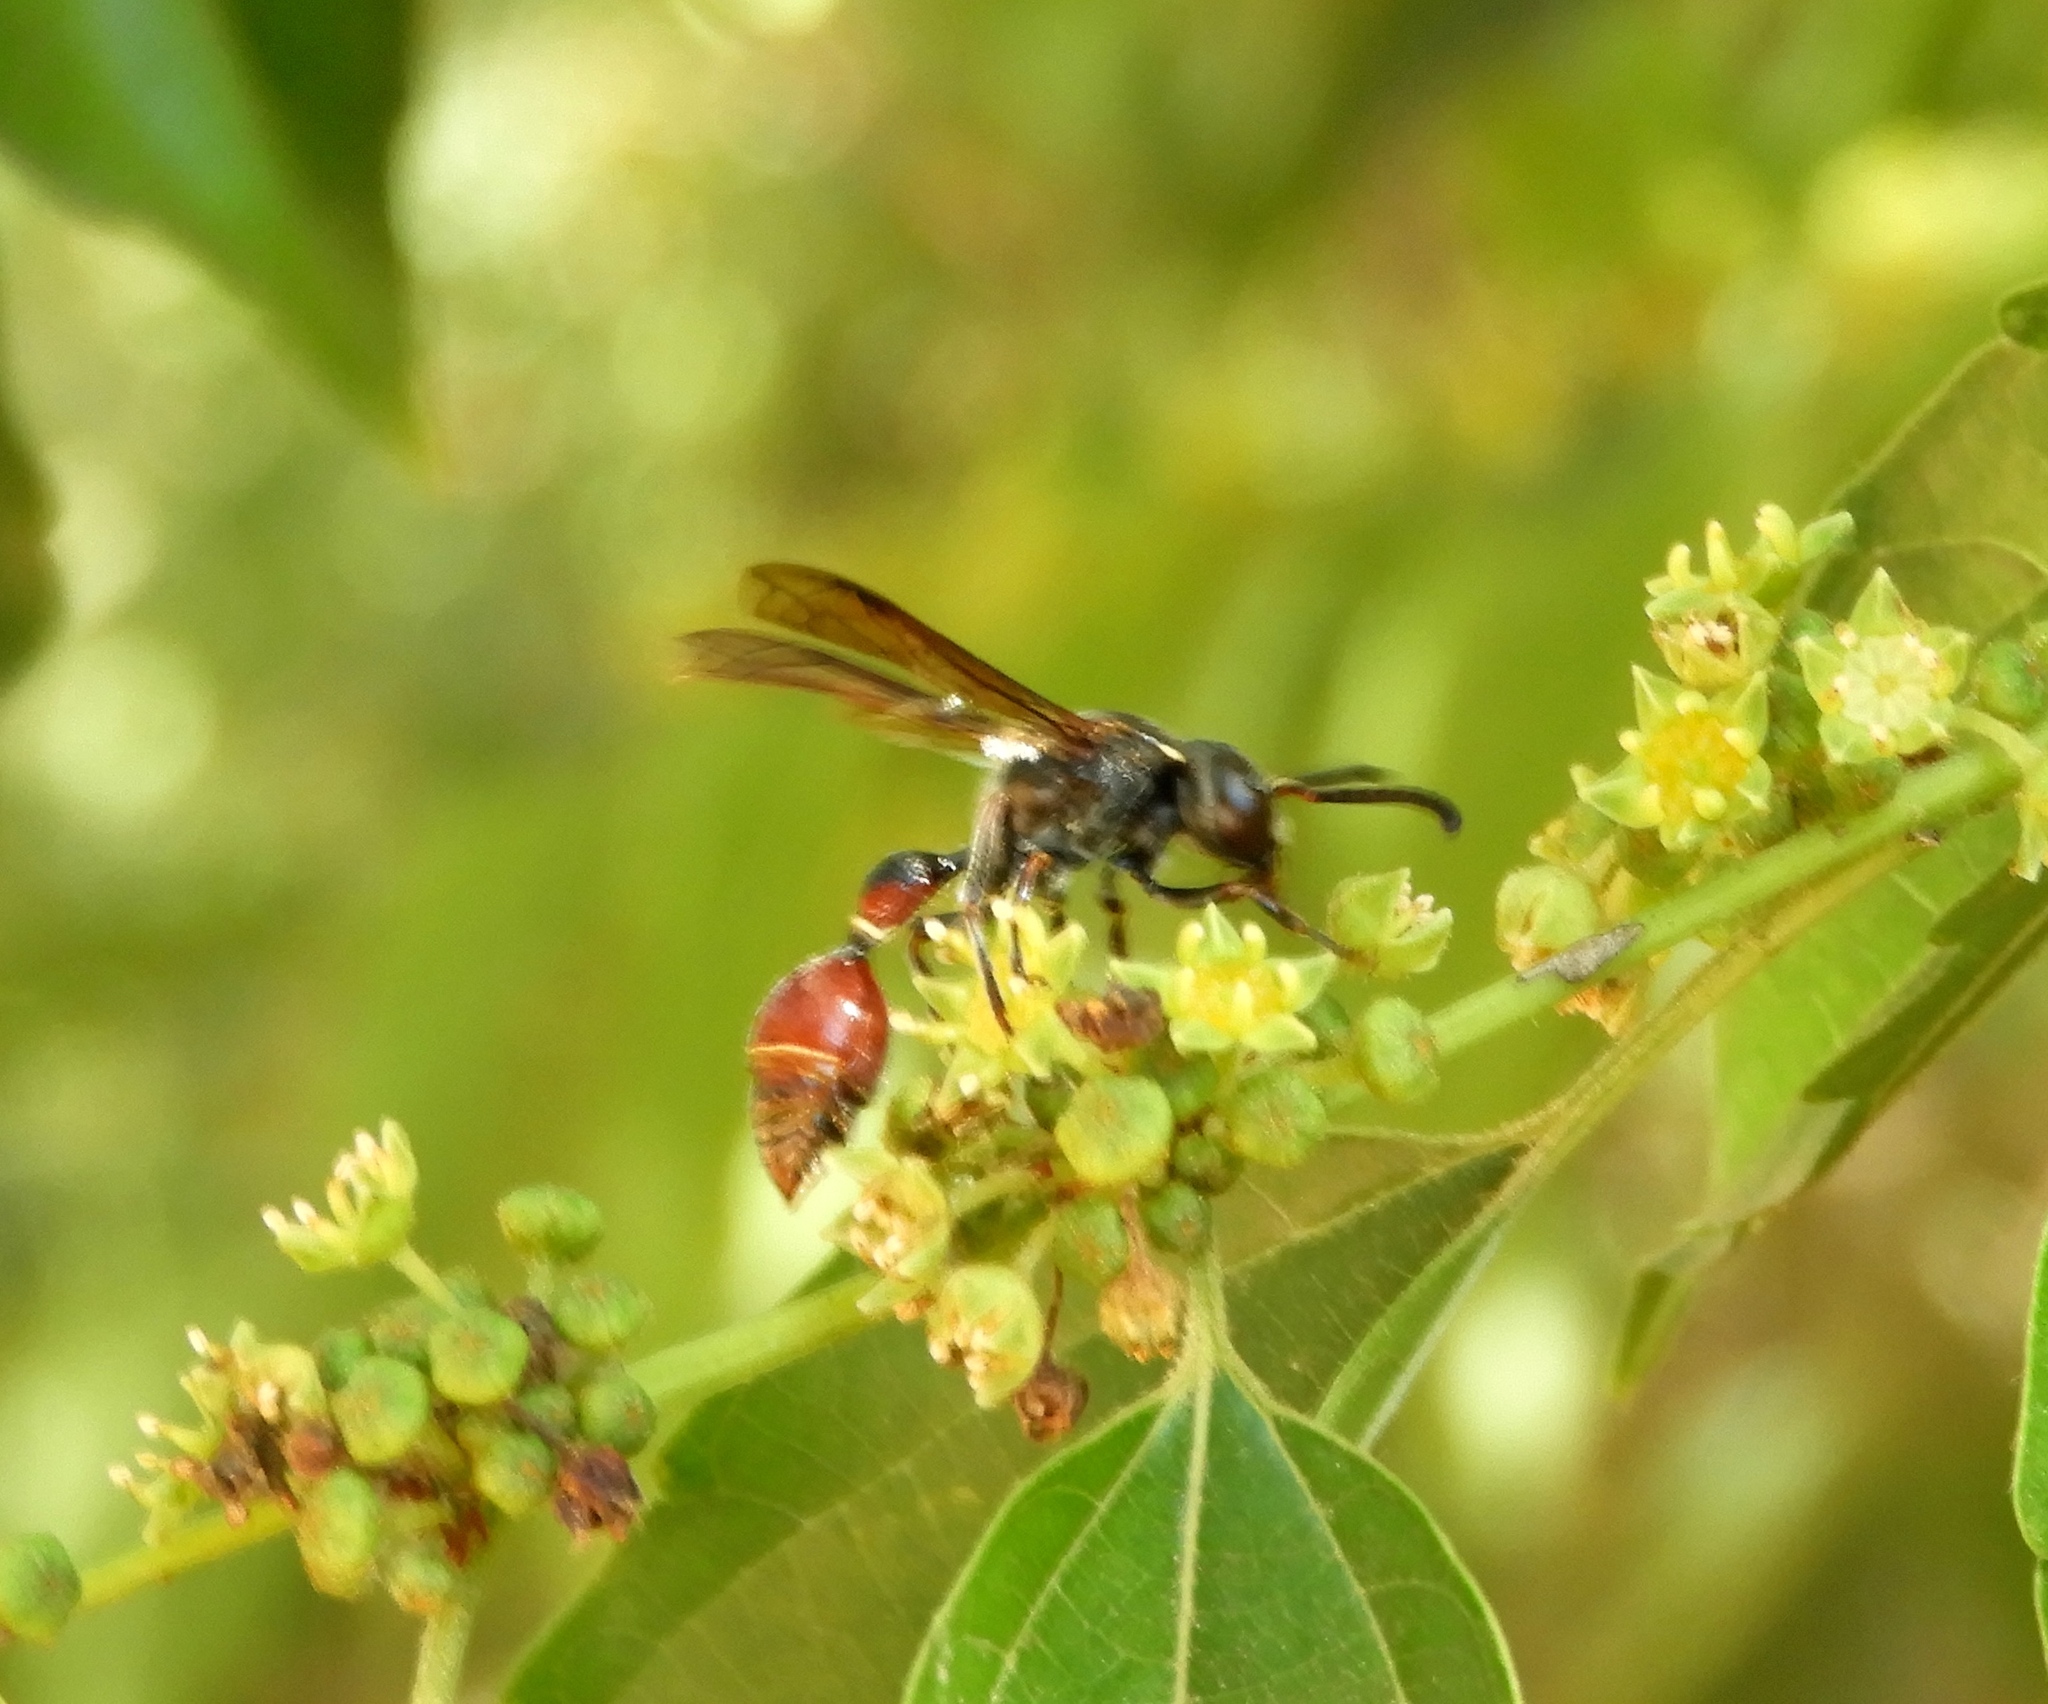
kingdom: Animalia
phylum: Arthropoda
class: Insecta
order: Hymenoptera
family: Eumenidae
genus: Zethus
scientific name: Zethus analis
